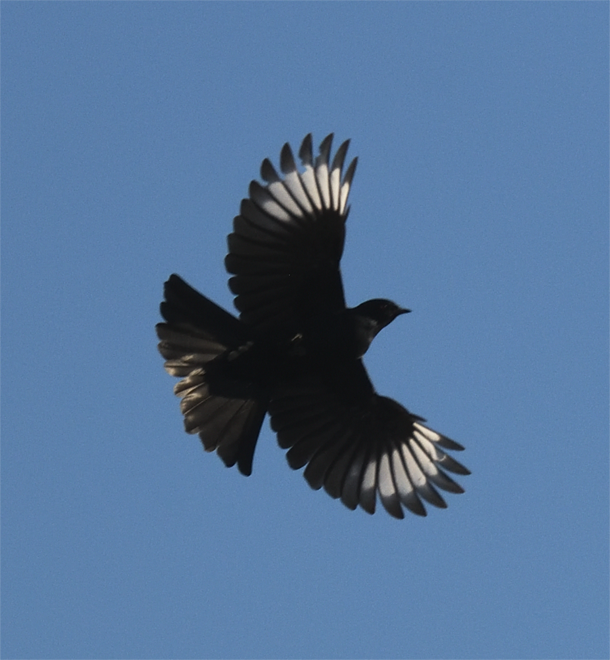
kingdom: Animalia
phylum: Chordata
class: Aves
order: Passeriformes
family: Ptilogonatidae
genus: Phainopepla
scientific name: Phainopepla nitens
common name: Phainopepla
